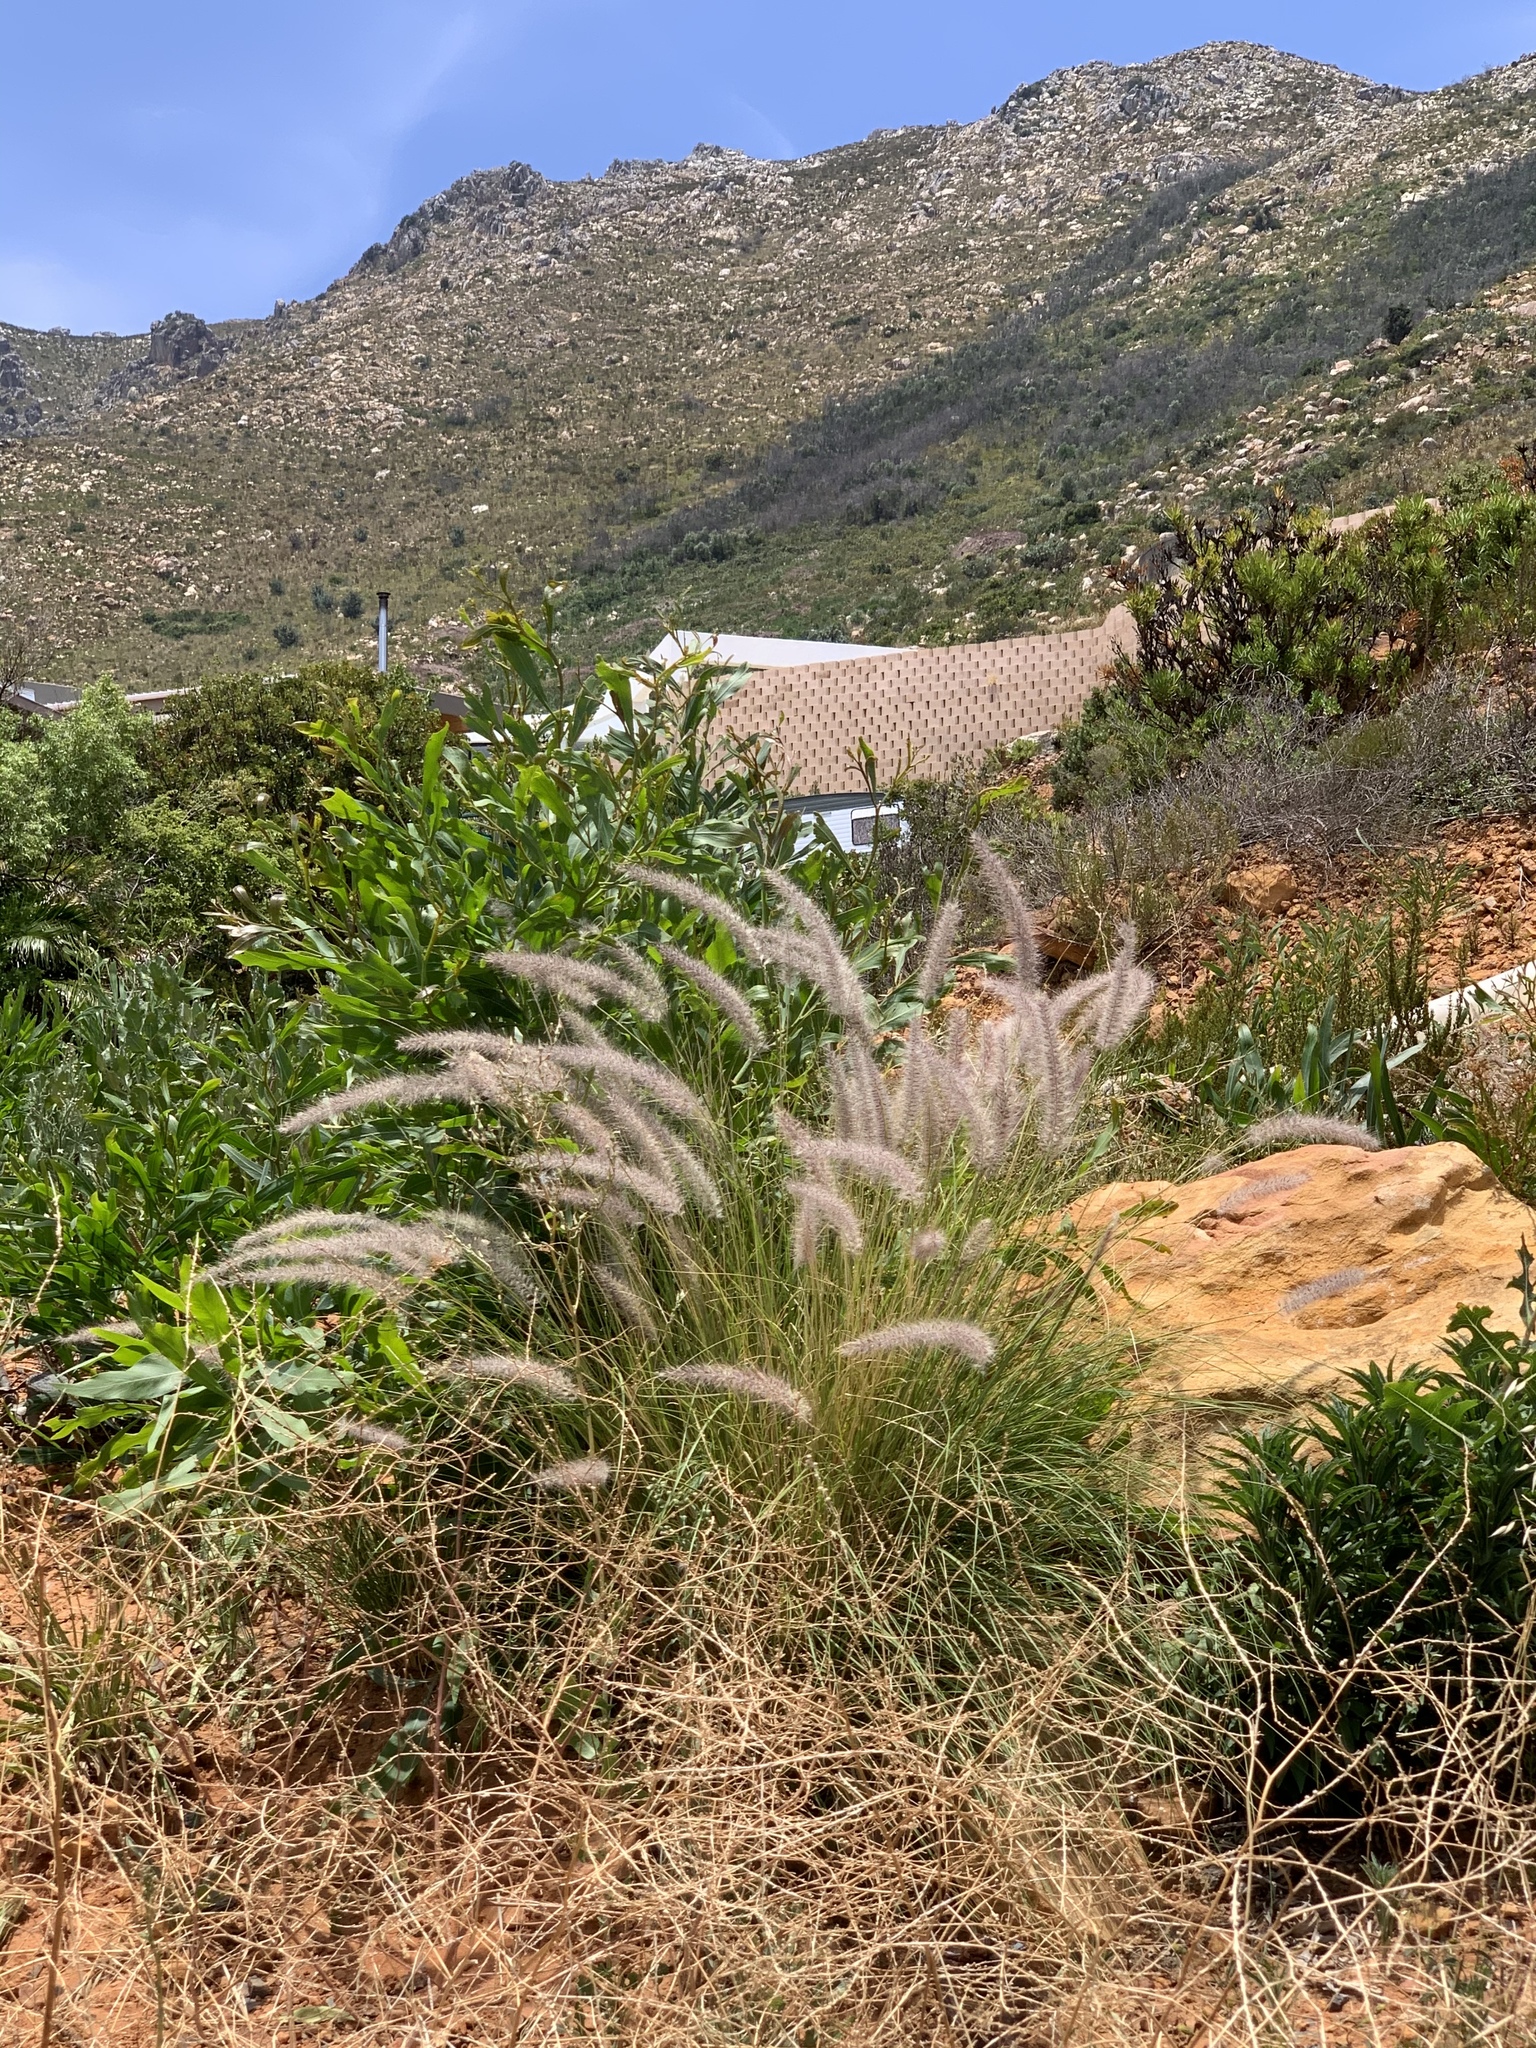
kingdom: Plantae
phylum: Tracheophyta
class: Liliopsida
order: Poales
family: Poaceae
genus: Cenchrus
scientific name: Cenchrus setaceus
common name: Crimson fountaingrass
